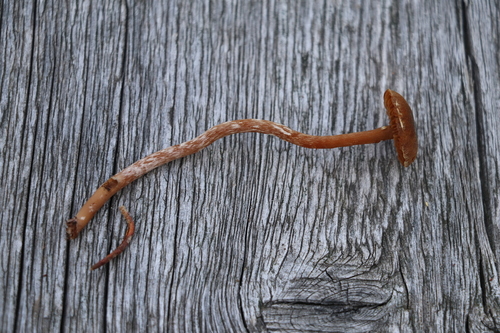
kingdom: Fungi
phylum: Basidiomycota
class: Agaricomycetes
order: Agaricales
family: Cortinariaceae
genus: Cortinarius
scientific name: Cortinarius flos-paludis
